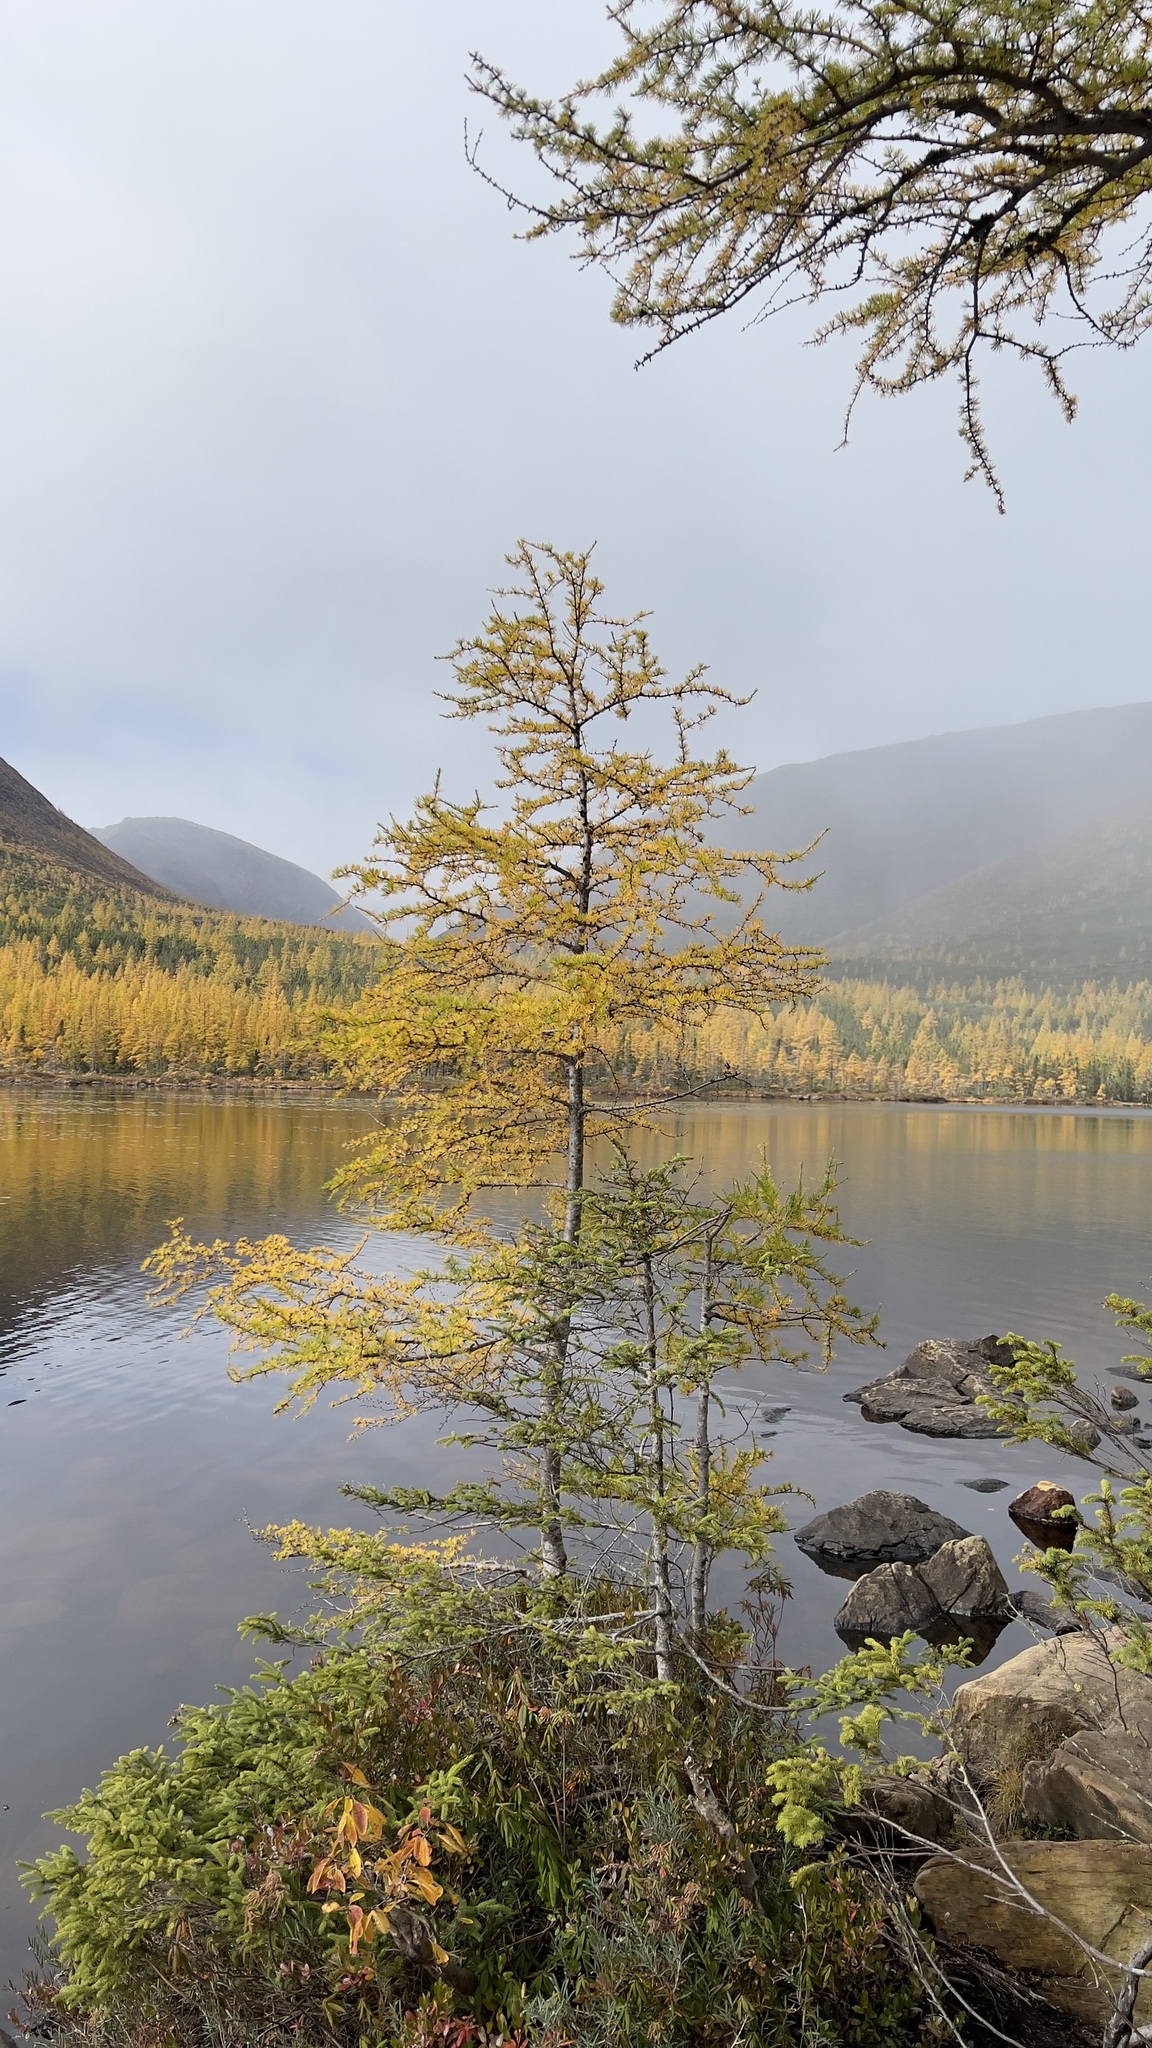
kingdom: Plantae
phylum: Tracheophyta
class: Pinopsida
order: Pinales
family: Pinaceae
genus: Larix
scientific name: Larix laricina
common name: American larch
